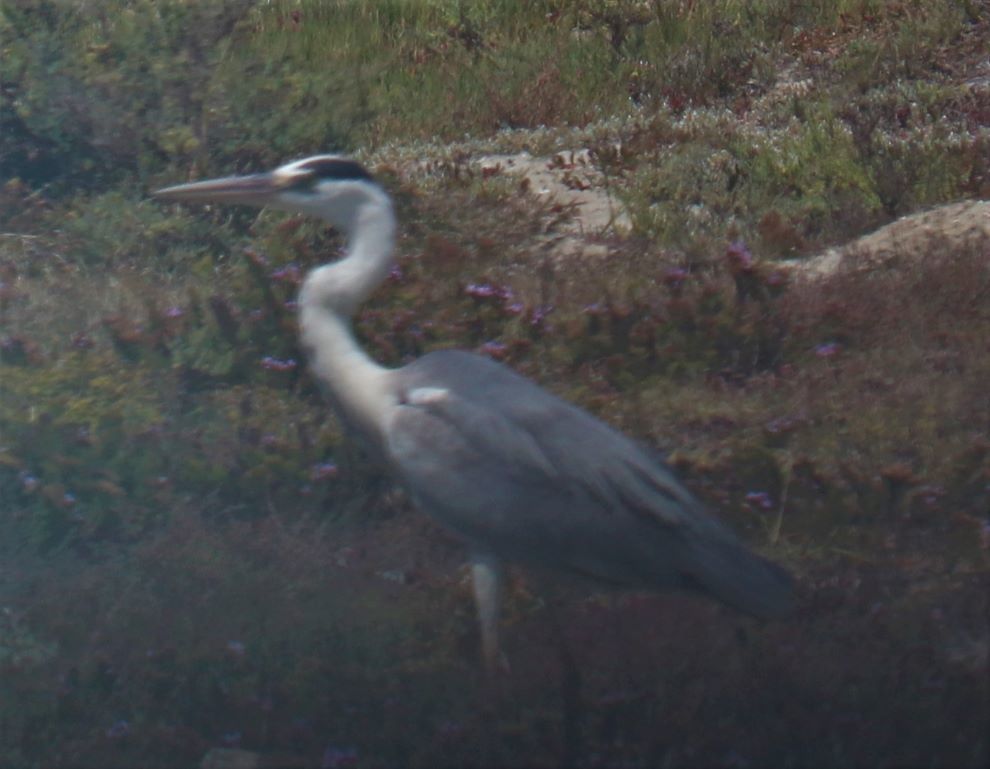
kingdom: Animalia
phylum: Chordata
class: Aves
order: Pelecaniformes
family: Ardeidae
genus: Ardea
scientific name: Ardea cinerea
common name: Grey heron
